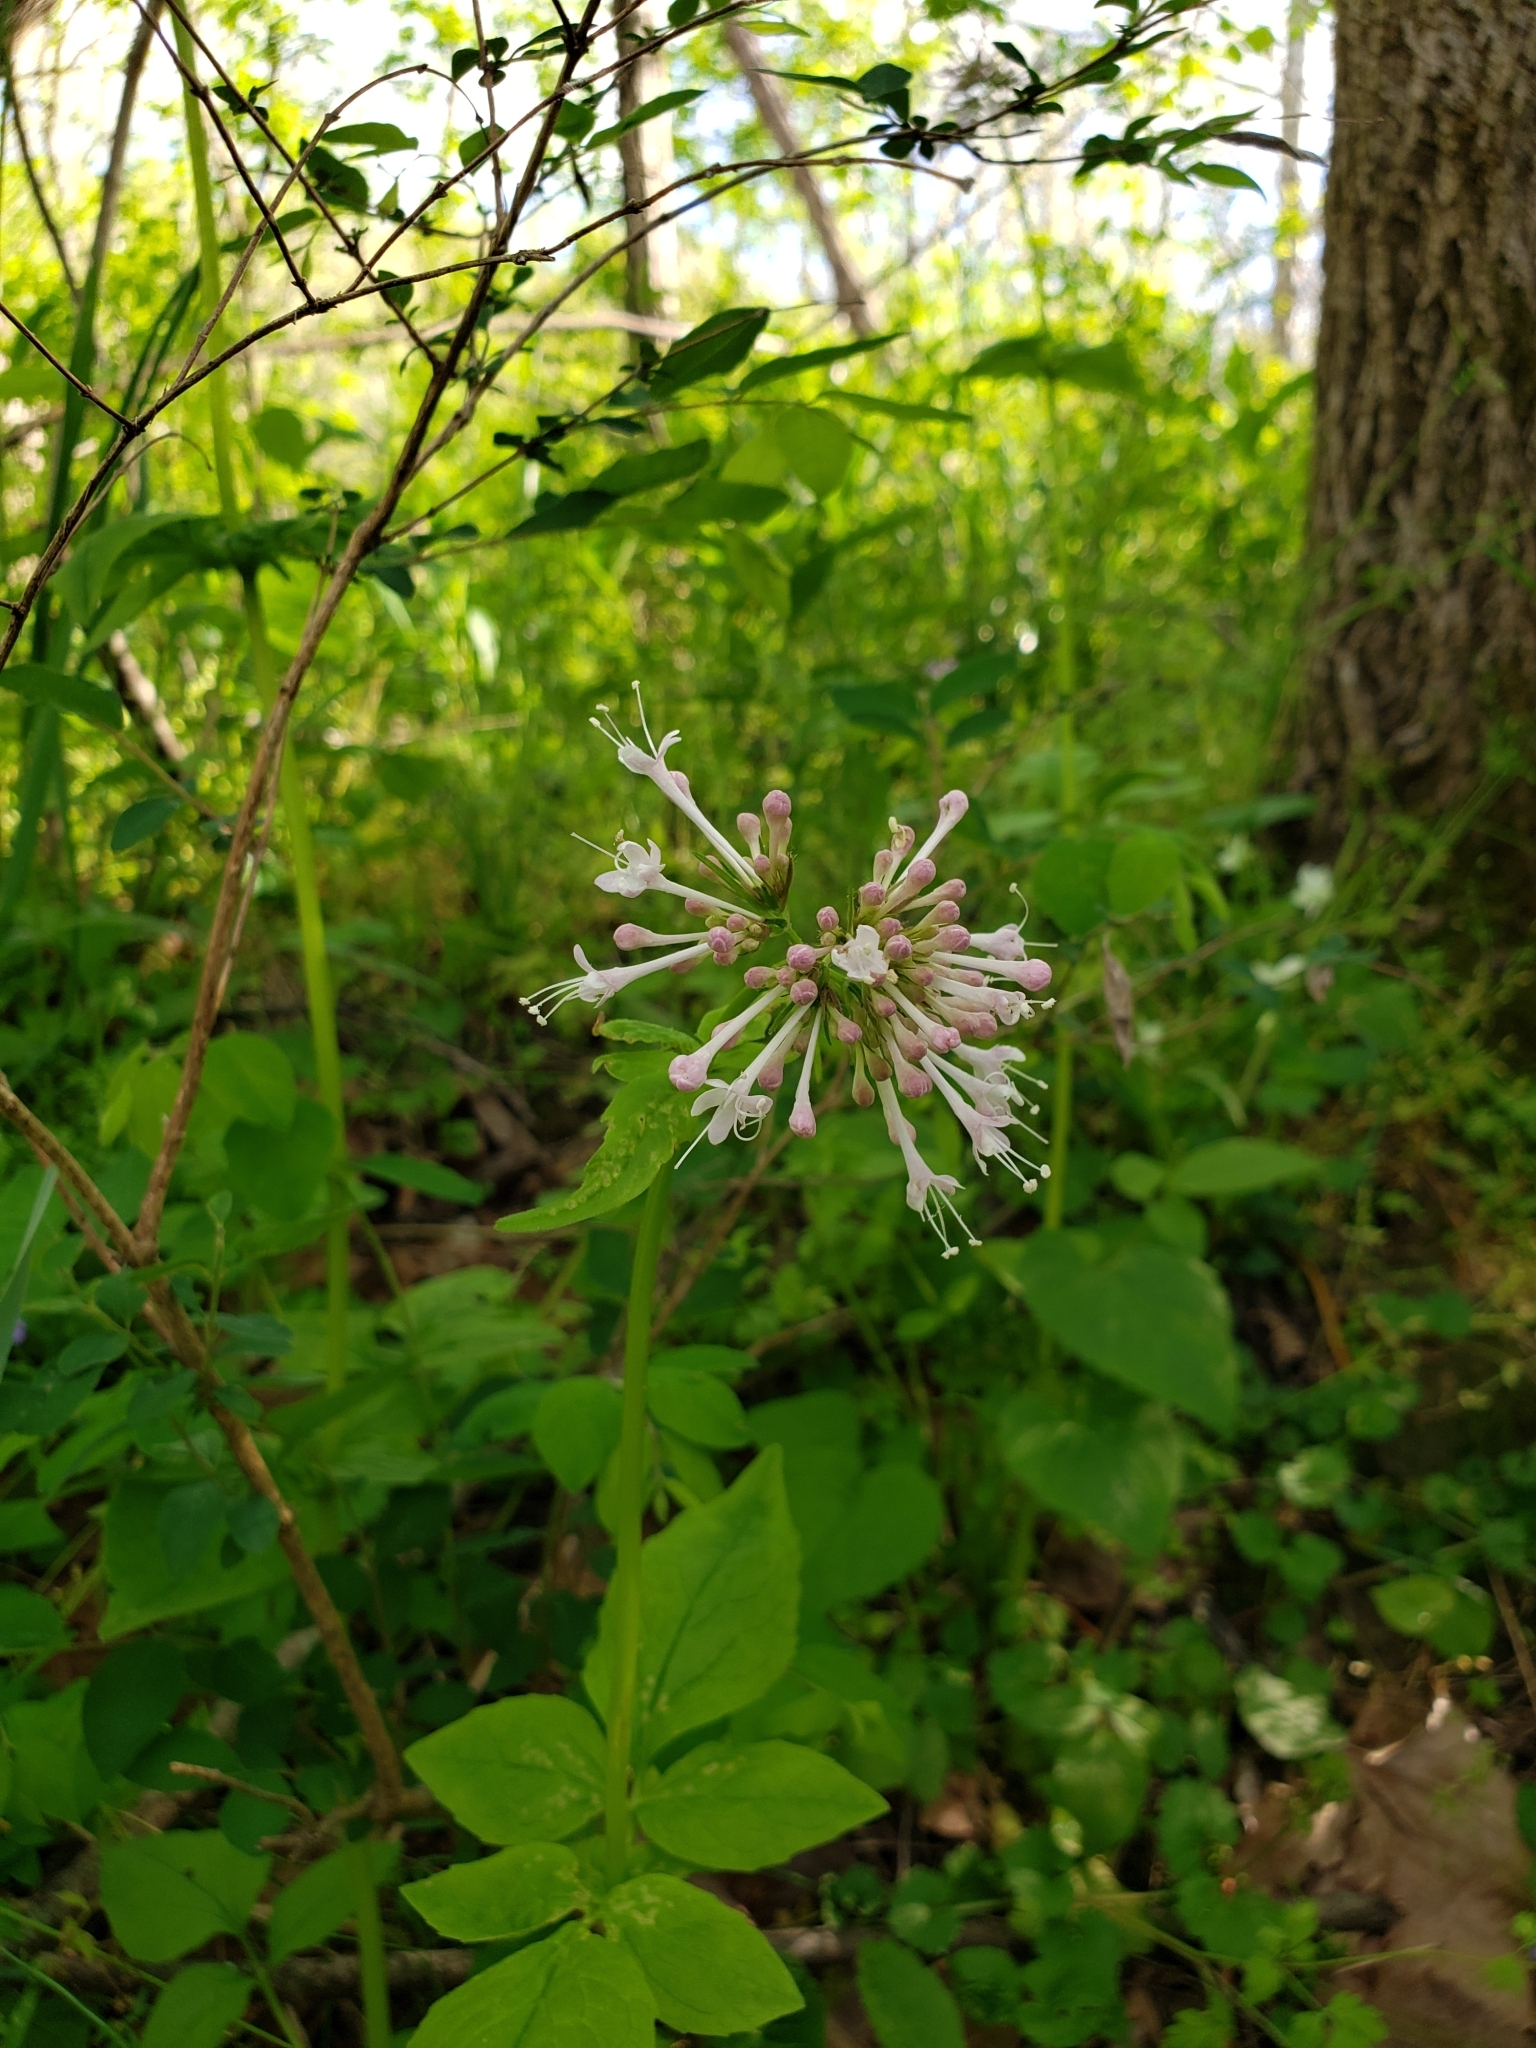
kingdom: Plantae
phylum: Tracheophyta
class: Magnoliopsida
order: Dipsacales
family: Caprifoliaceae
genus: Valeriana
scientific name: Valeriana pauciflora
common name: Long-tube valeriana
